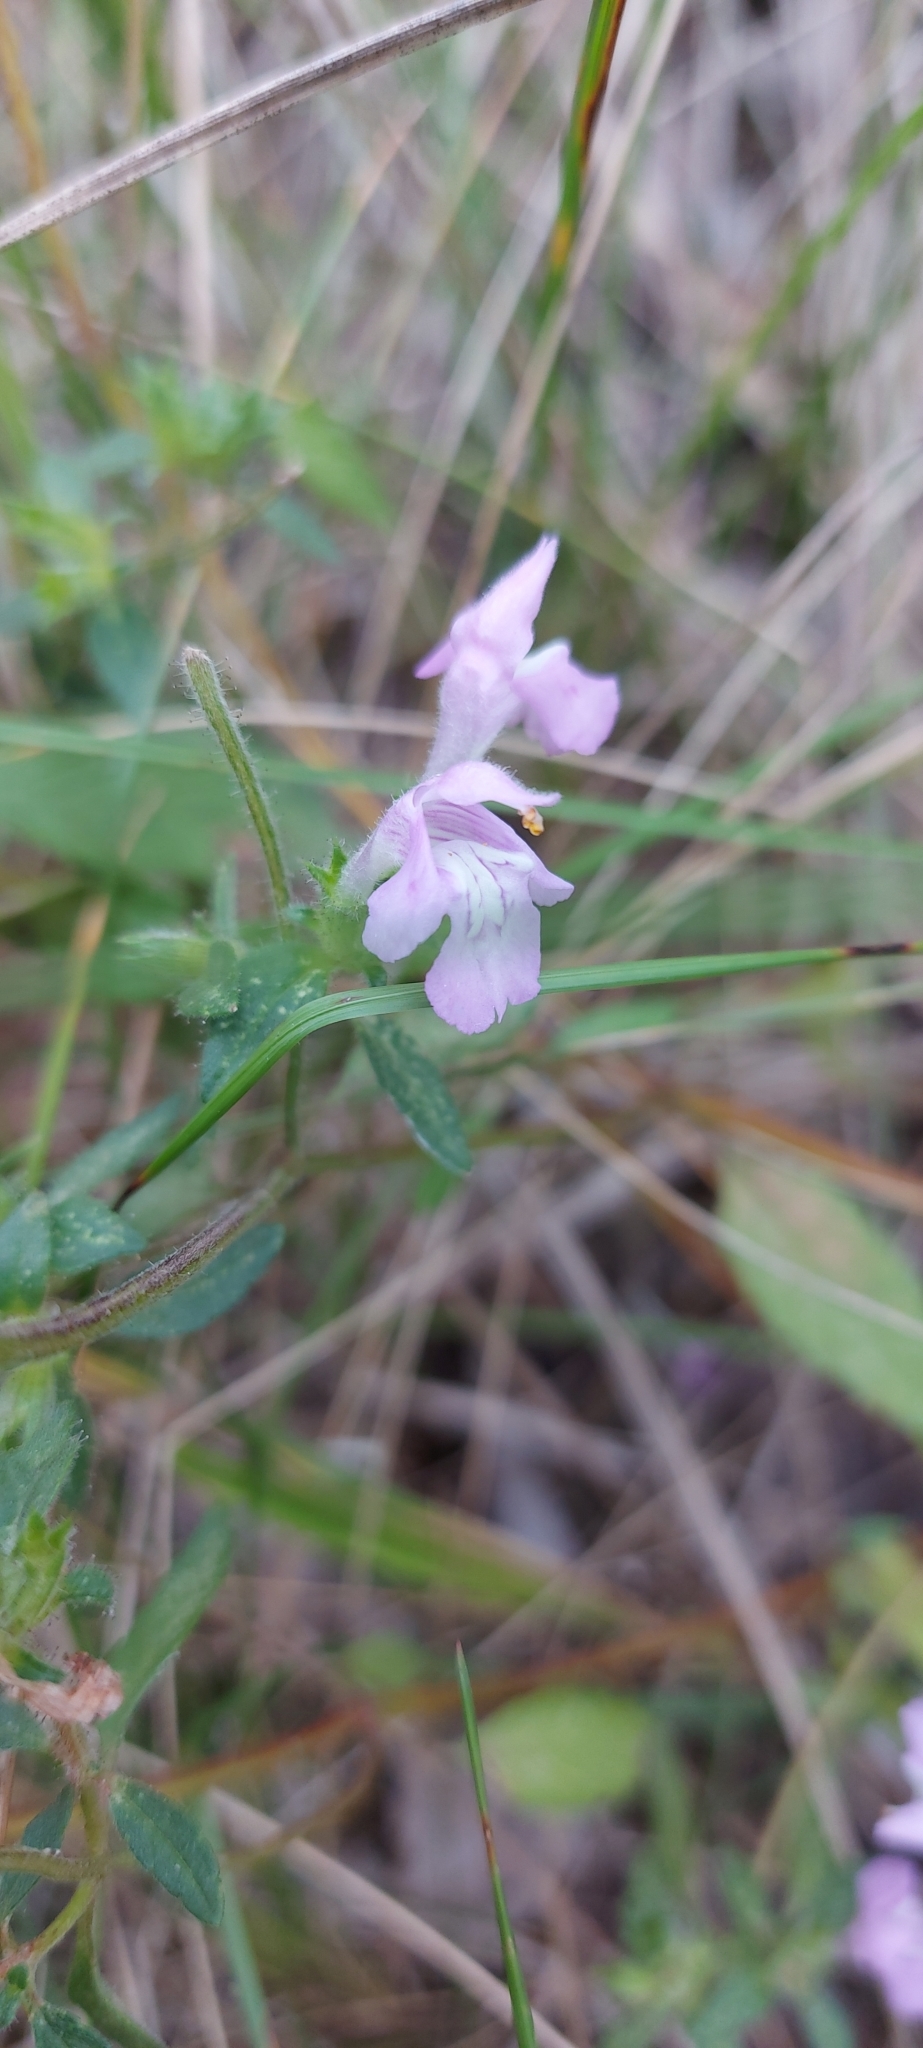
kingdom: Plantae
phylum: Tracheophyta
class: Magnoliopsida
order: Lamiales
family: Lamiaceae
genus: Galeopsis
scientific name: Galeopsis ladanum
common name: Broad-leaved hemp-nettle
